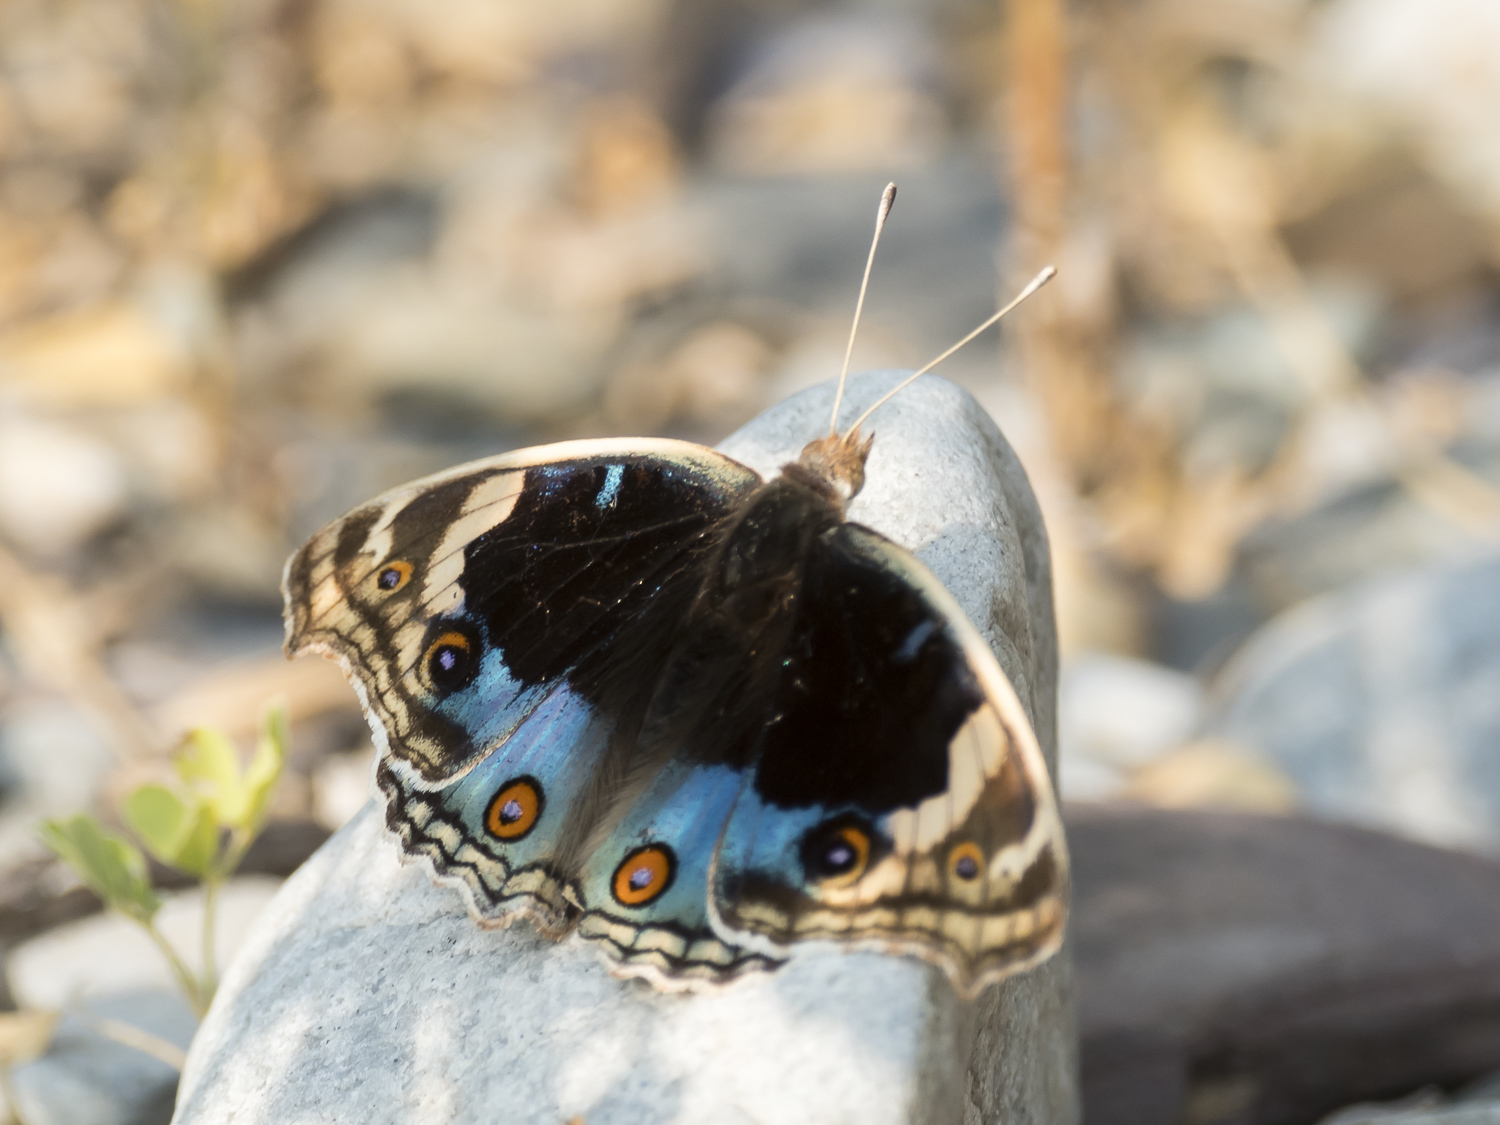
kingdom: Animalia
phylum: Arthropoda
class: Insecta
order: Lepidoptera
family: Nymphalidae
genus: Junonia
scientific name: Junonia orithya
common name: Blue pansy
